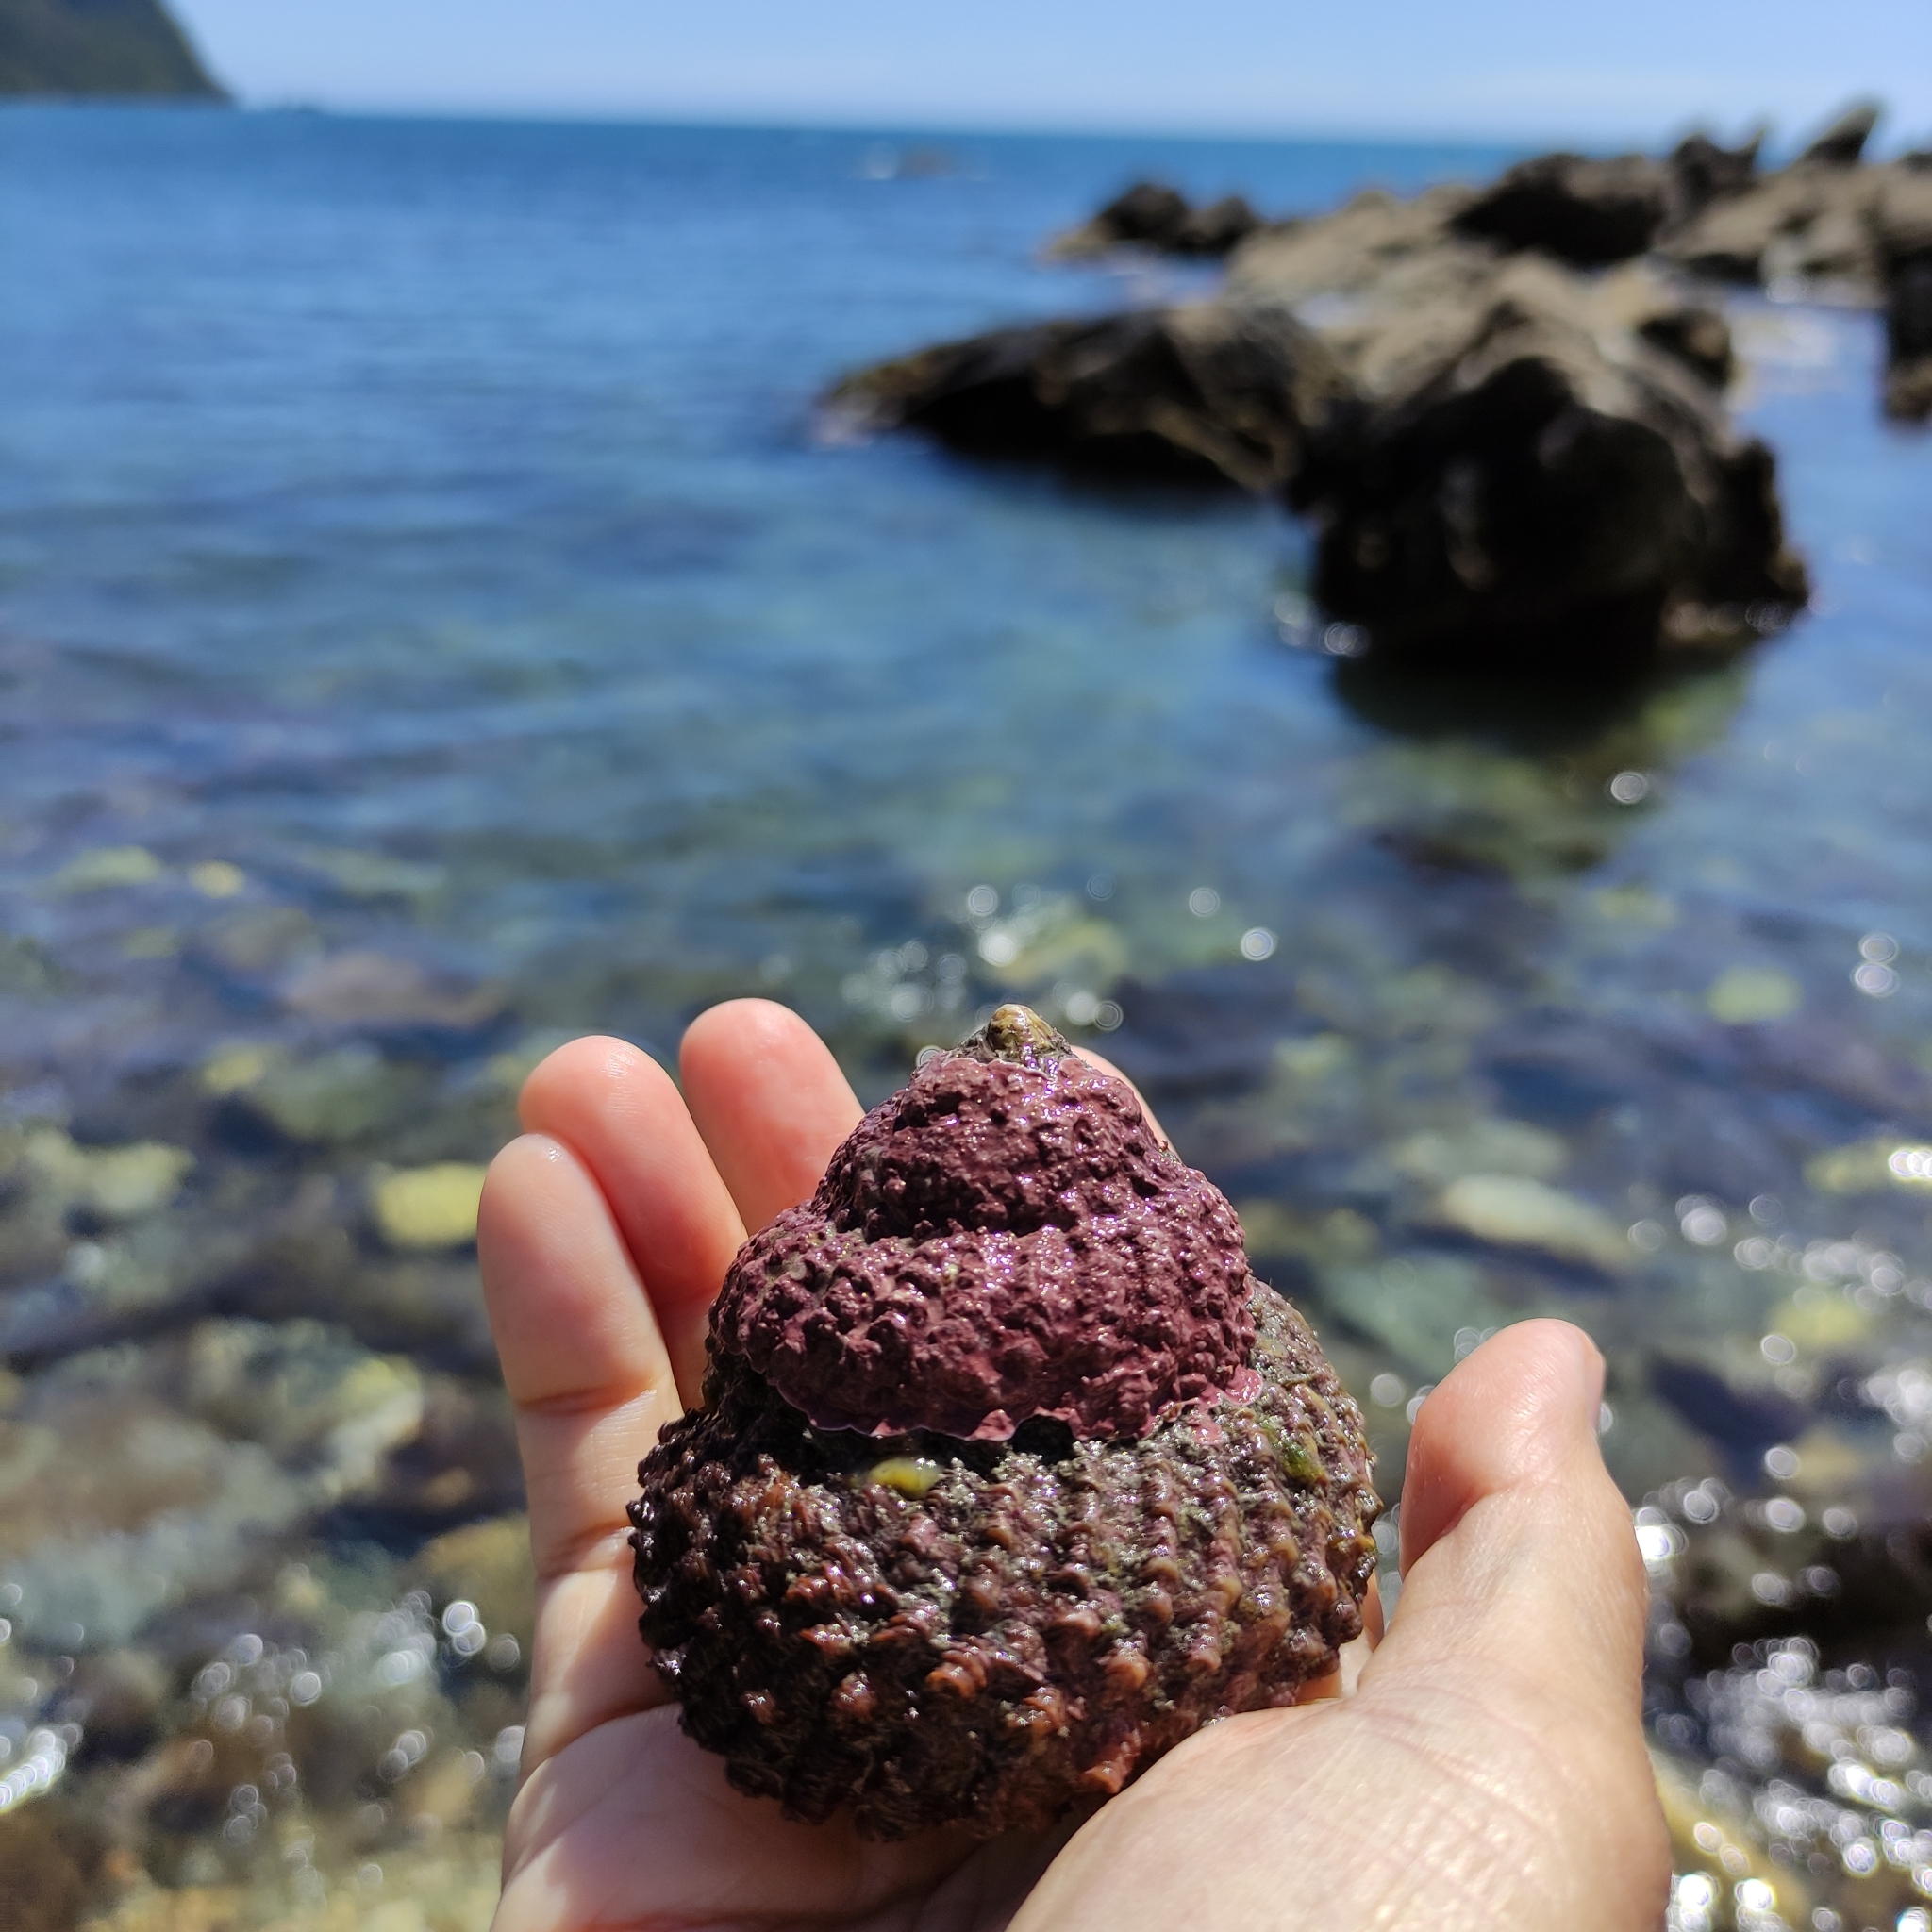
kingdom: Animalia
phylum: Mollusca
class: Gastropoda
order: Trochida
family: Turbinidae
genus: Cookia
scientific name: Cookia sulcata
